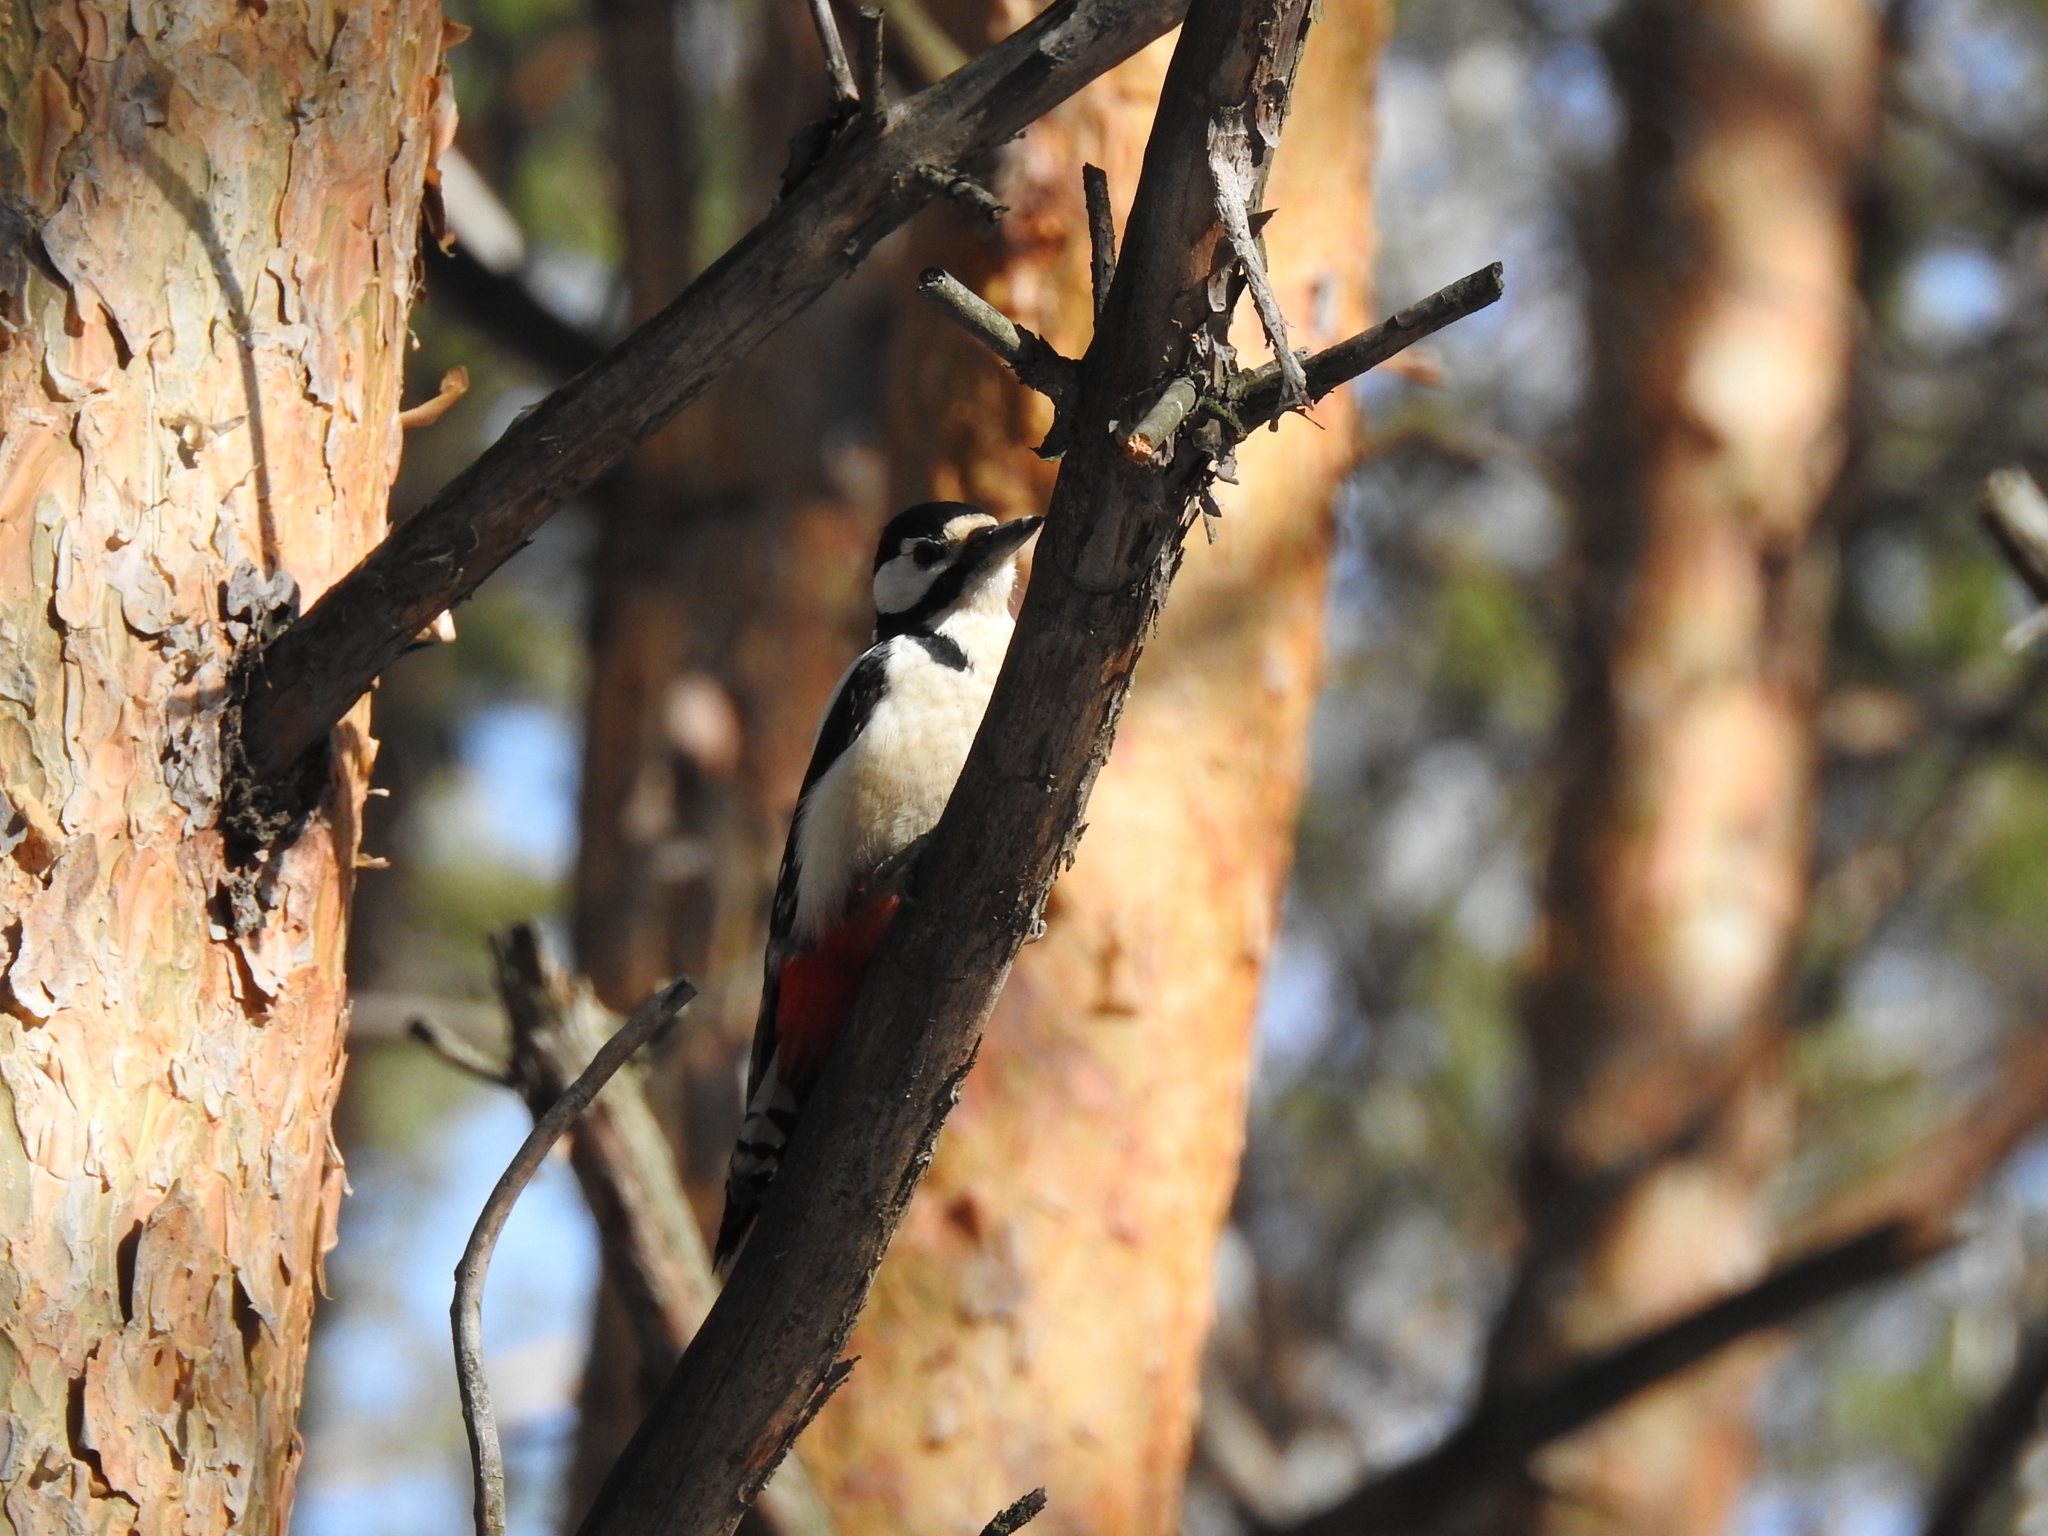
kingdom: Animalia
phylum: Chordata
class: Aves
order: Piciformes
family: Picidae
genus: Dendrocopos
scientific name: Dendrocopos major
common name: Great spotted woodpecker
